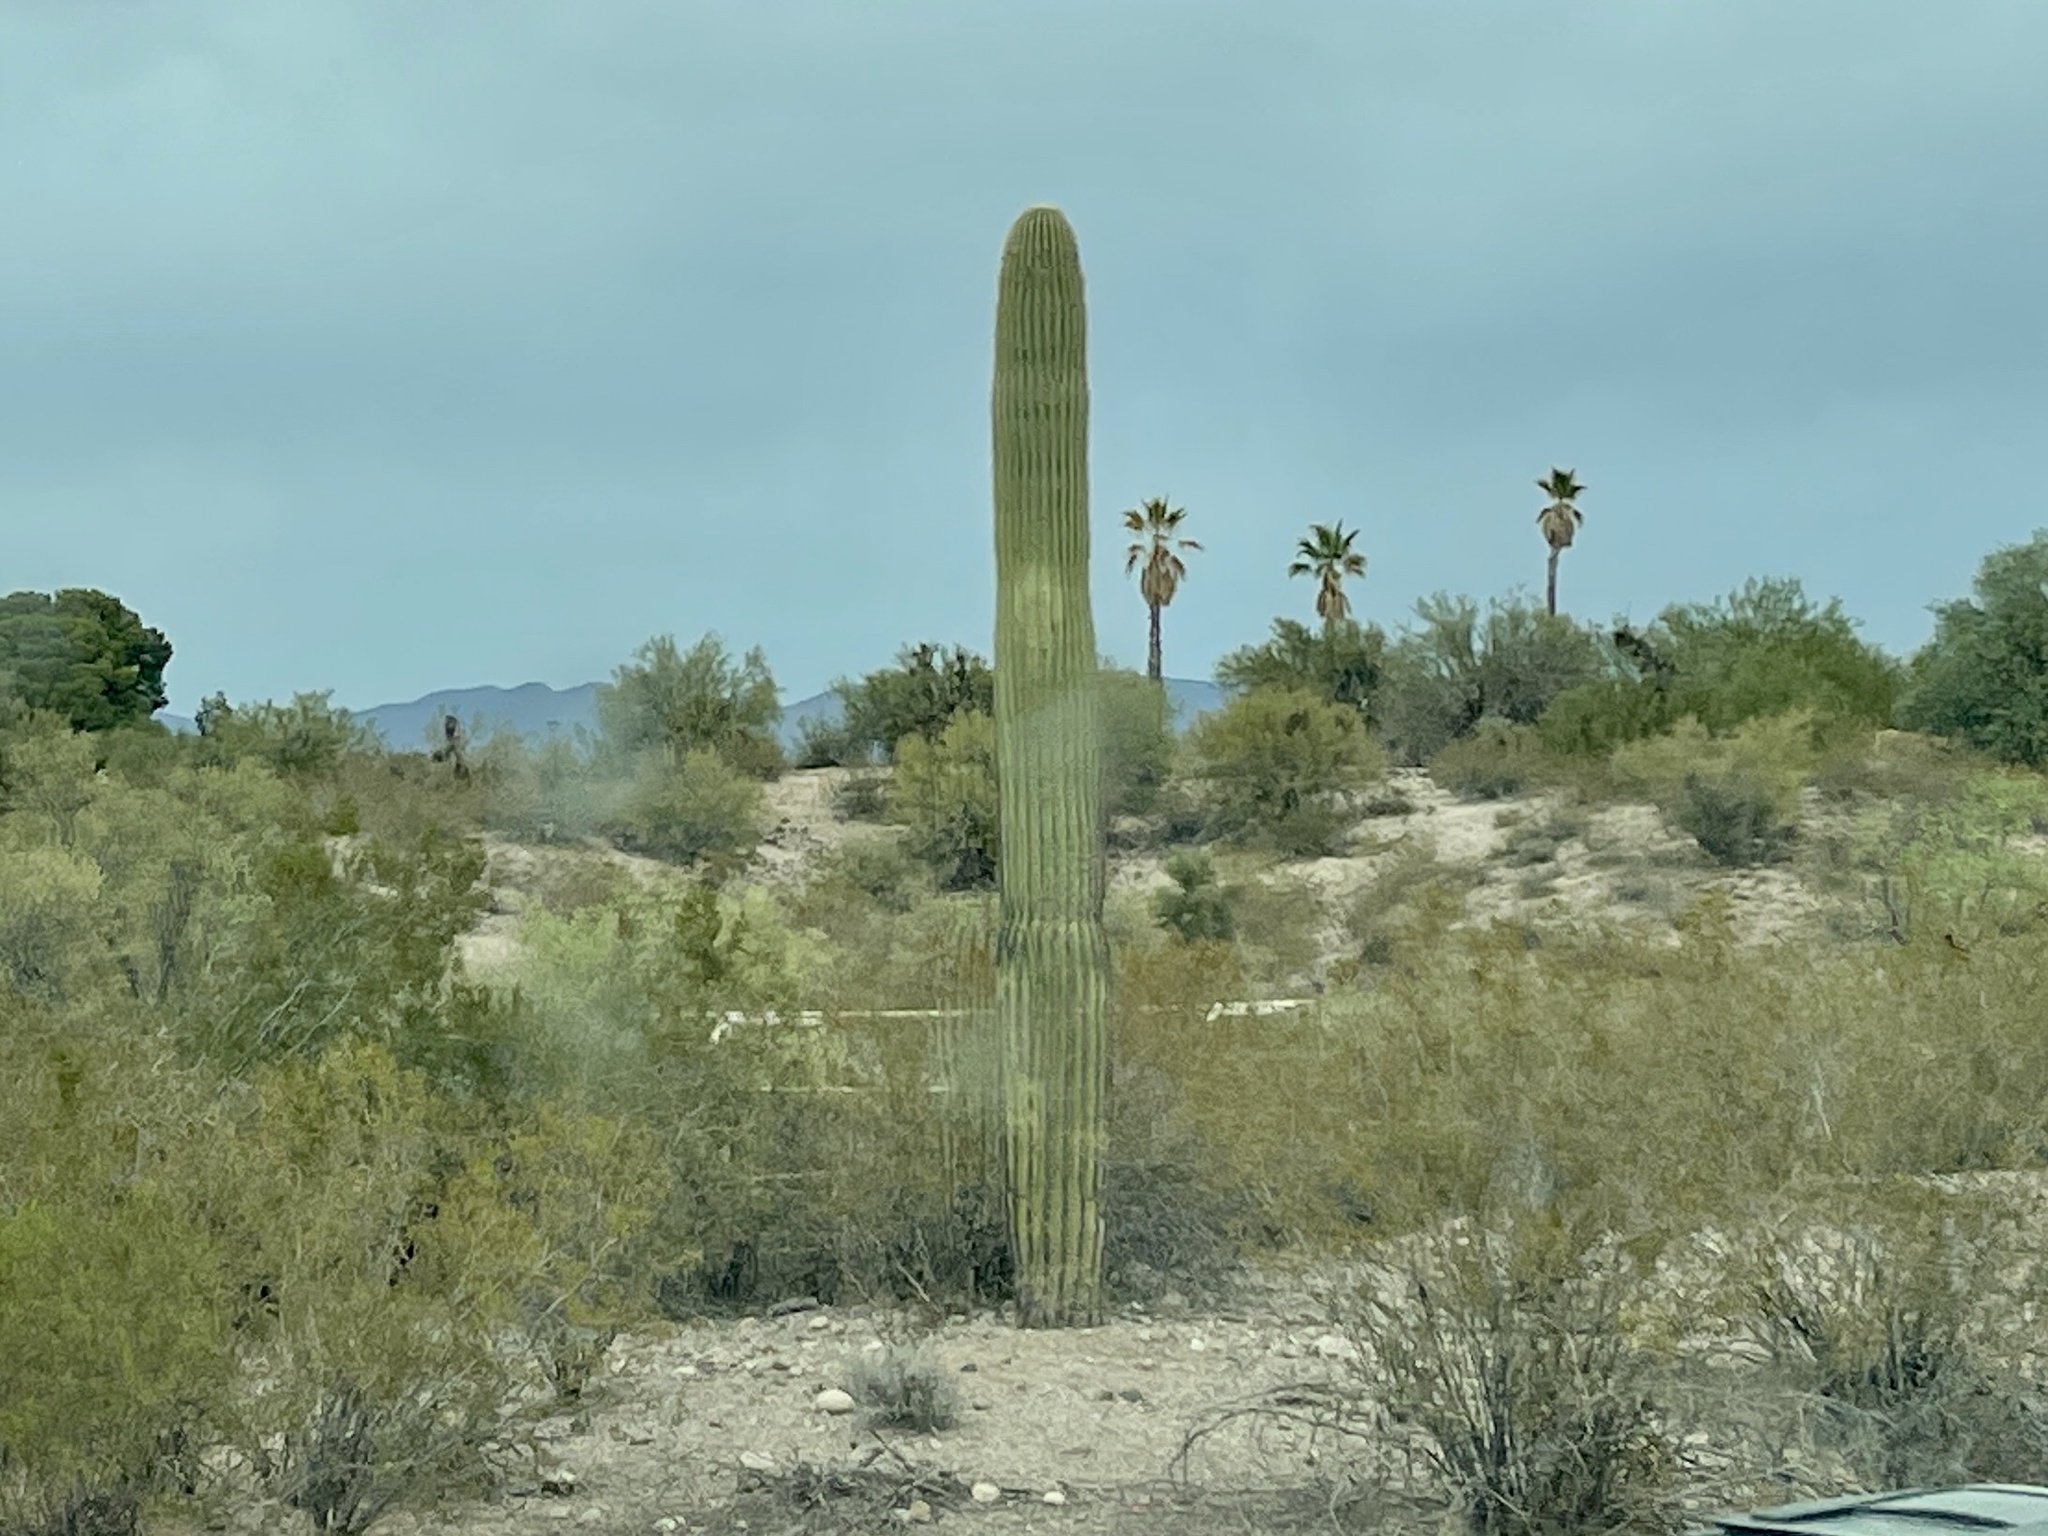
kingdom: Plantae
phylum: Tracheophyta
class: Magnoliopsida
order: Caryophyllales
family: Cactaceae
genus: Carnegiea
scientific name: Carnegiea gigantea
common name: Saguaro
